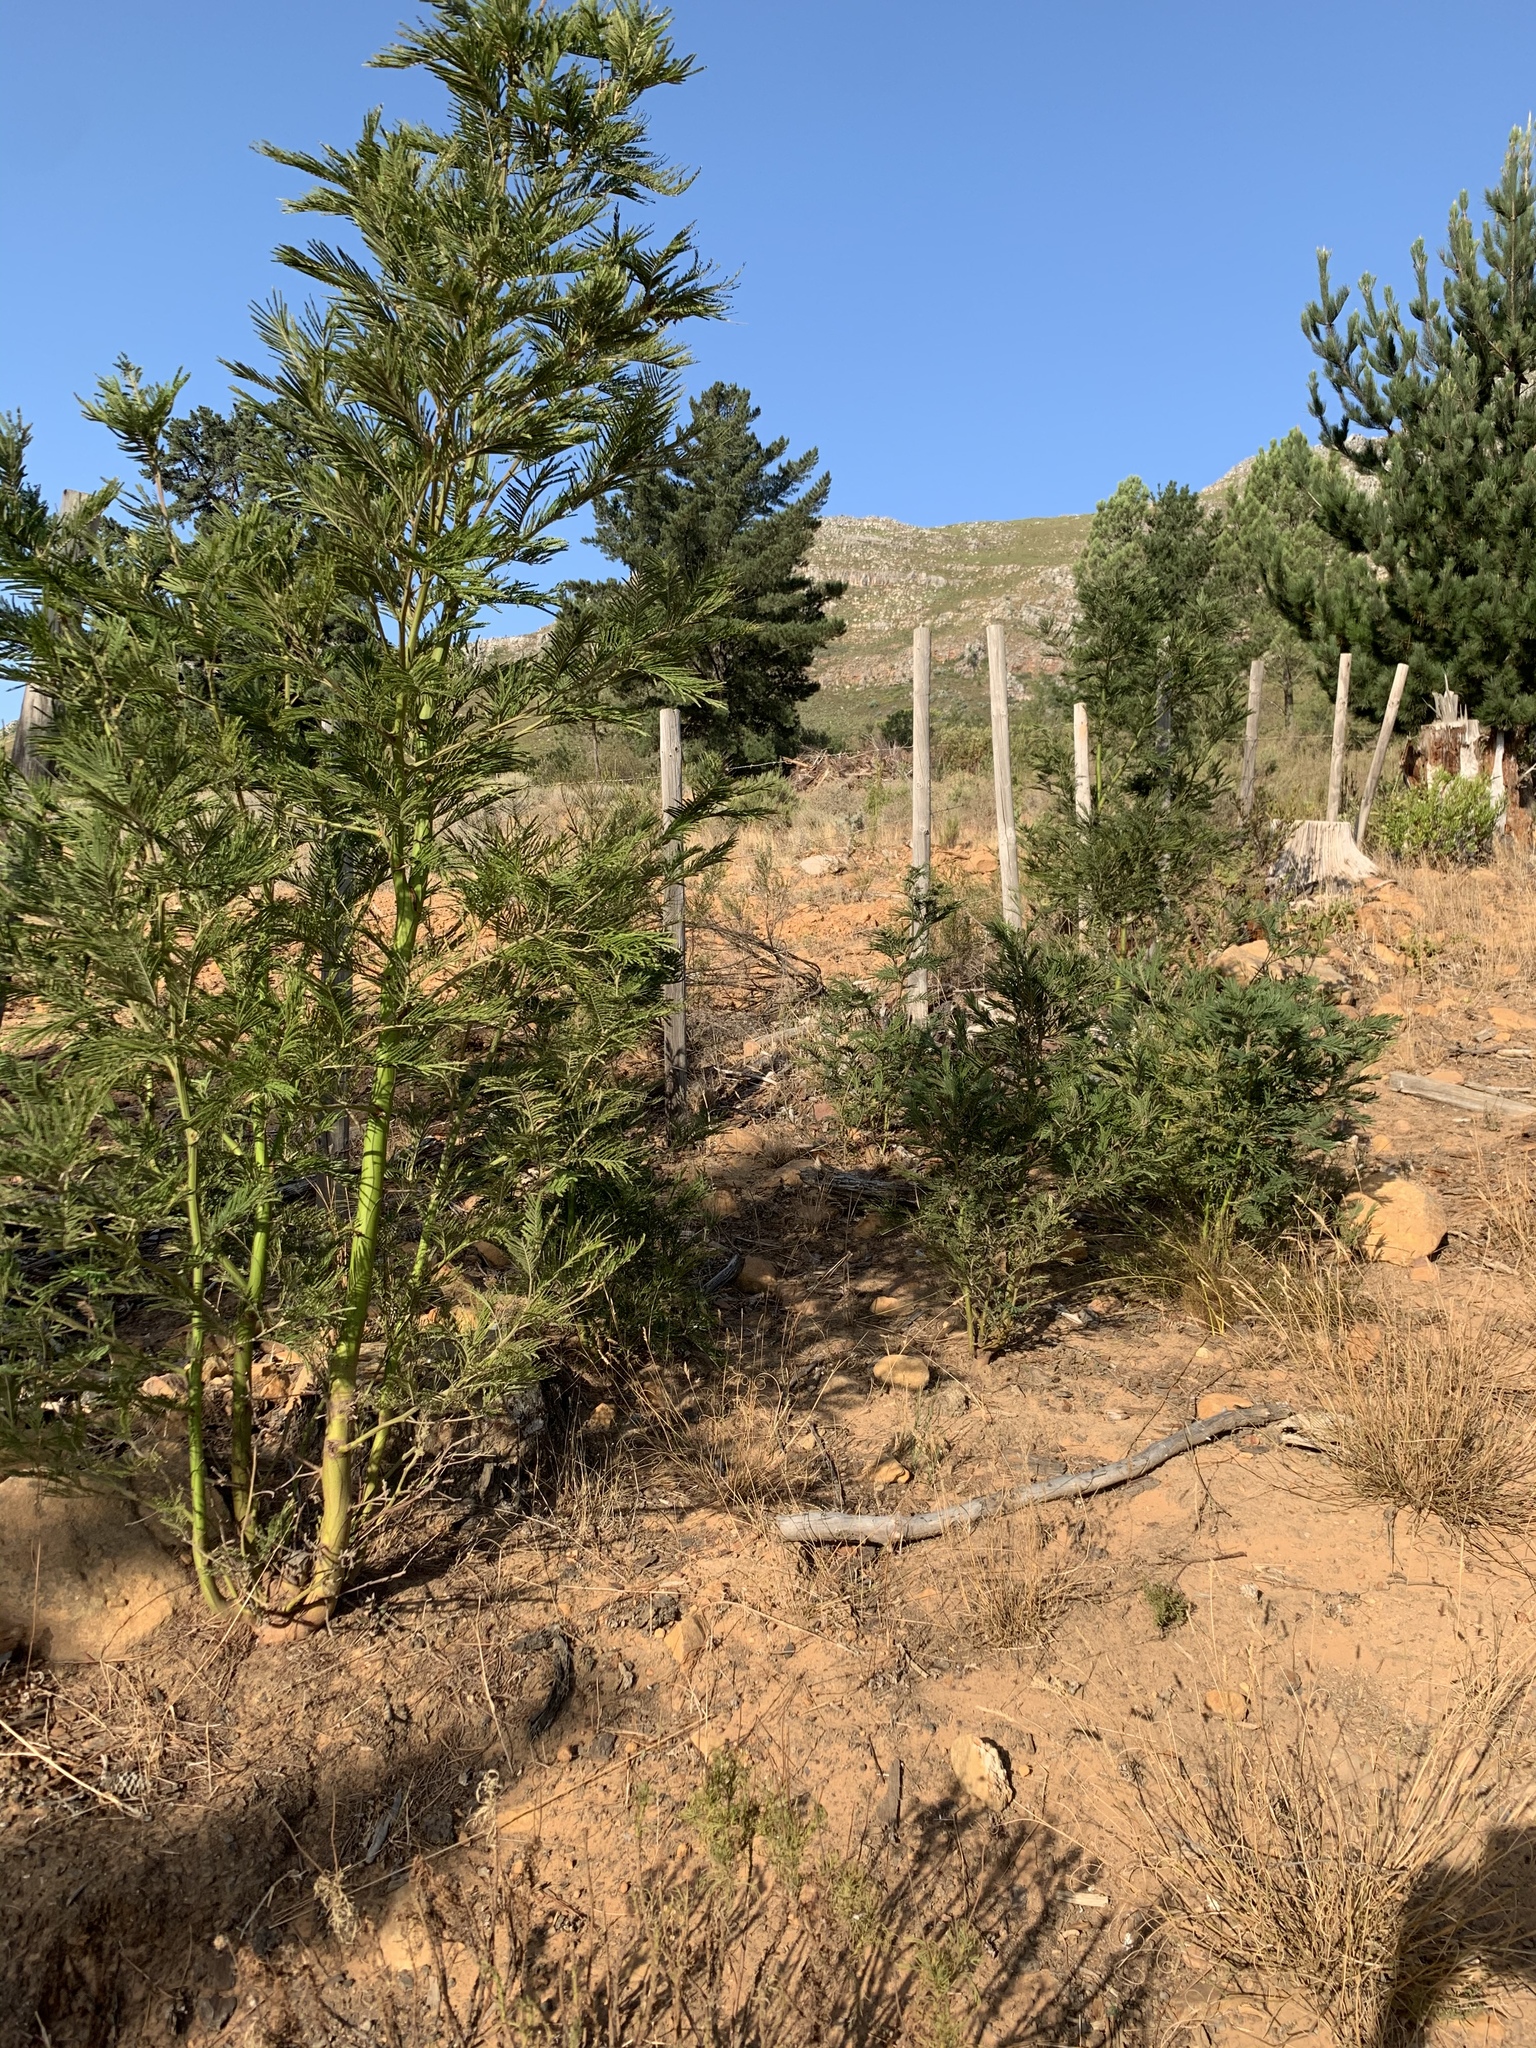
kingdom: Plantae
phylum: Tracheophyta
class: Magnoliopsida
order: Fabales
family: Fabaceae
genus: Acacia
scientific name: Acacia mearnsii
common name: Black wattle
